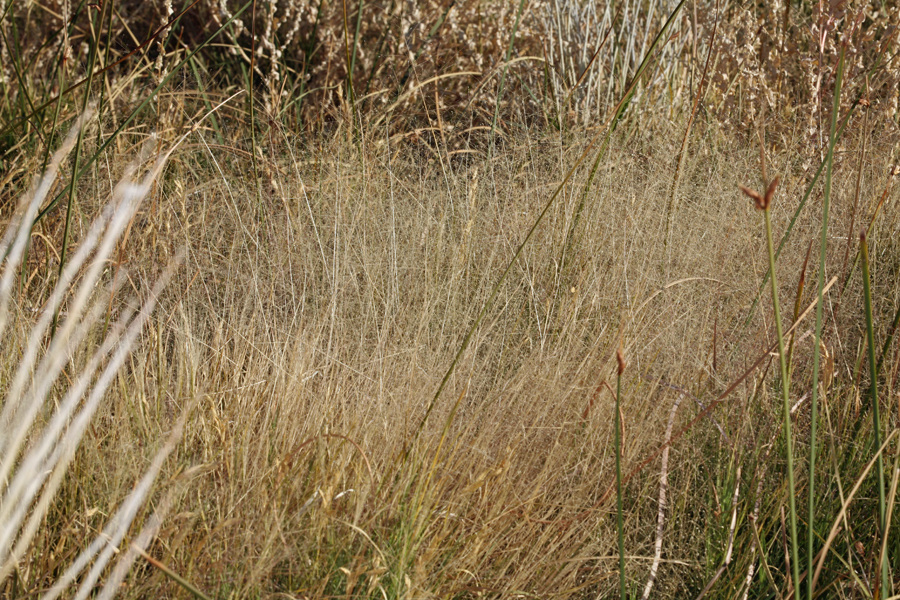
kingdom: Plantae
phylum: Tracheophyta
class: Liliopsida
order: Poales
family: Poaceae
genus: Muhlenbergia
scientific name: Muhlenbergia asperifolia
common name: Alkali muhly
